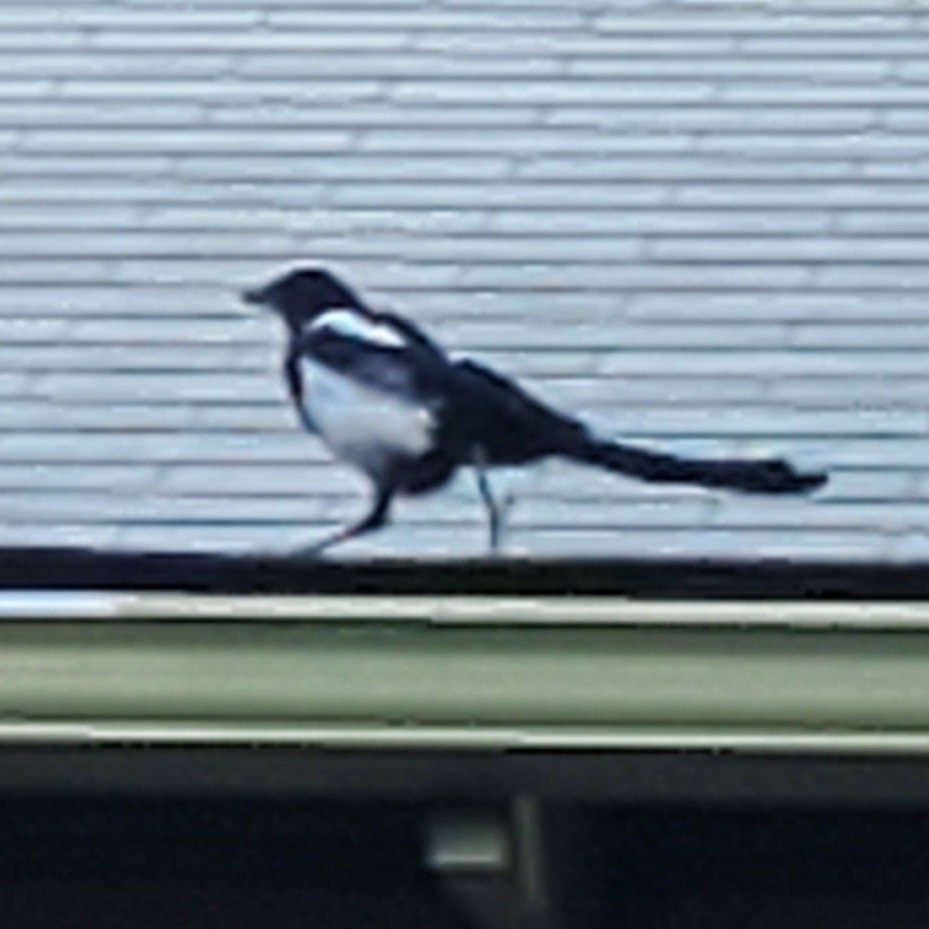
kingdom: Animalia
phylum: Chordata
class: Aves
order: Passeriformes
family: Corvidae
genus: Pica
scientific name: Pica hudsonia
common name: Black-billed magpie
